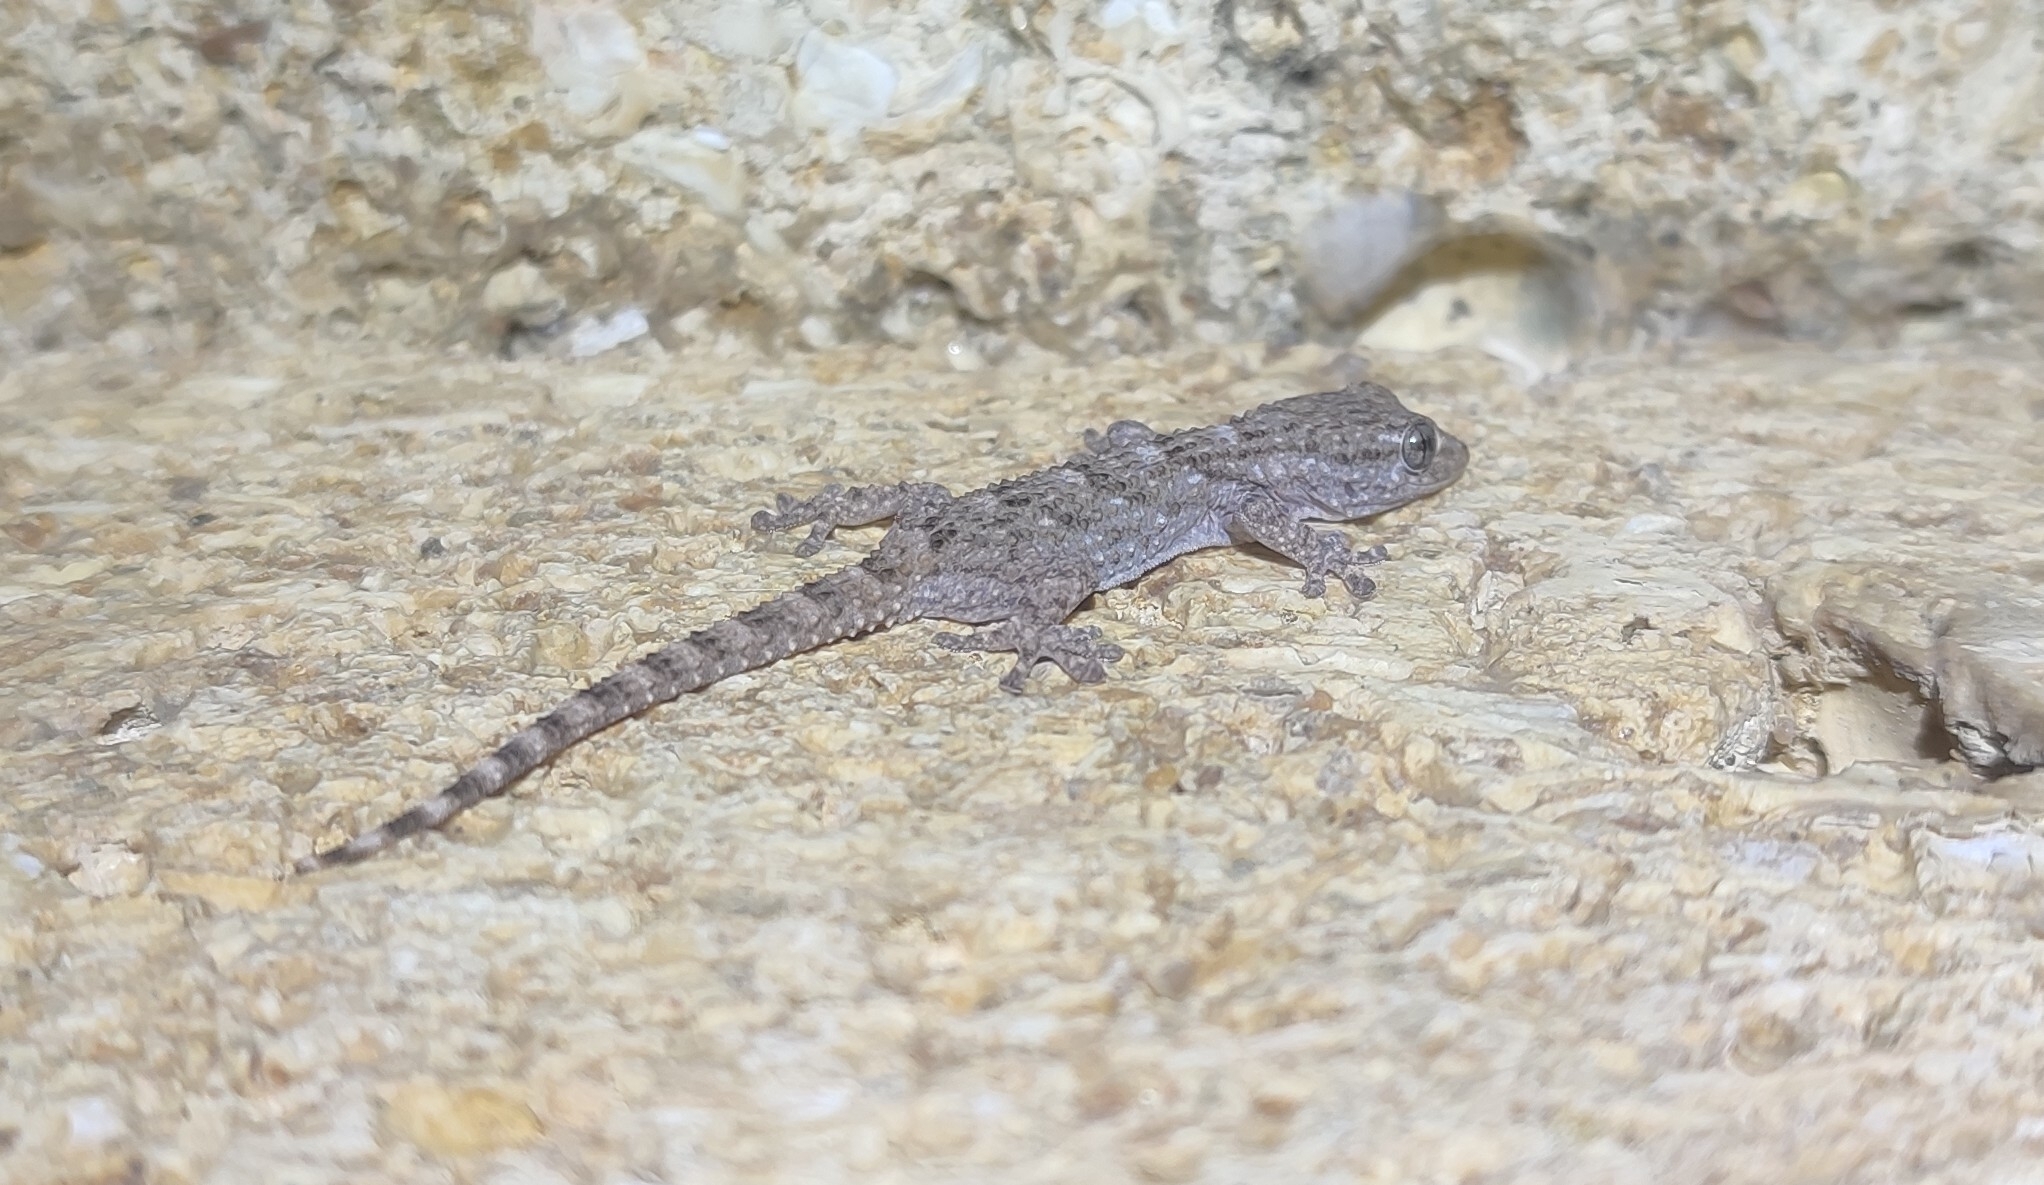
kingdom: Animalia
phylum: Chordata
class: Squamata
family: Phyllodactylidae
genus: Tarentola
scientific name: Tarentola mauritanica
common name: Moorish gecko
